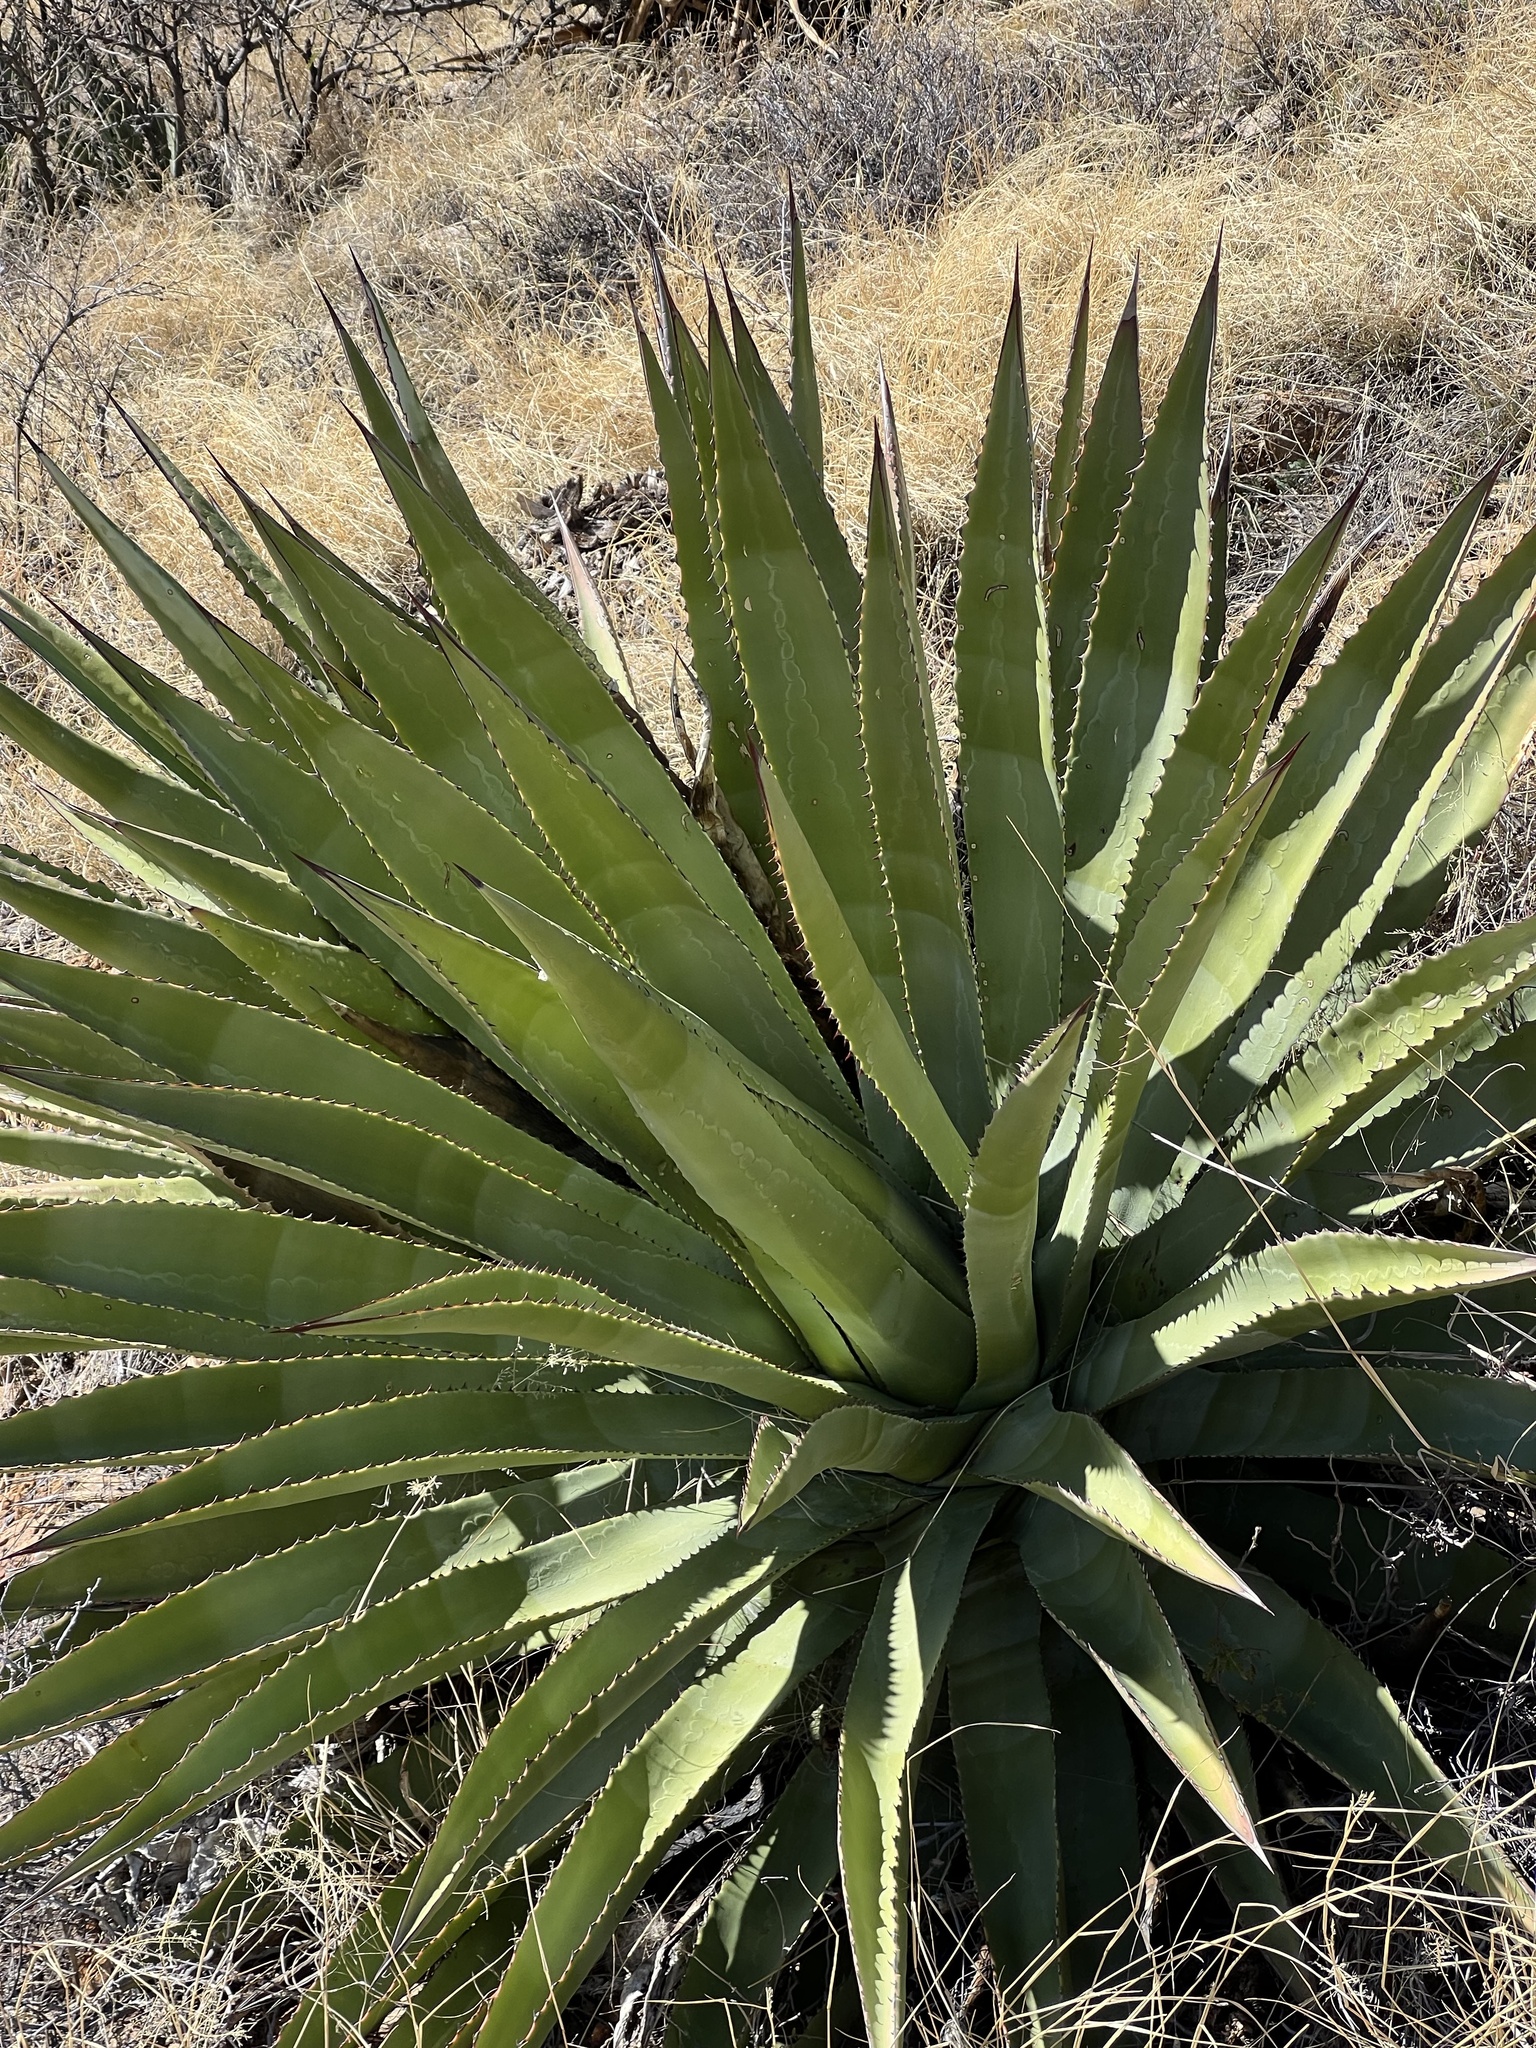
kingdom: Plantae
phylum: Tracheophyta
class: Liliopsida
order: Asparagales
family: Asparagaceae
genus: Agave
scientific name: Agave palmeri
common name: Palmer agave
